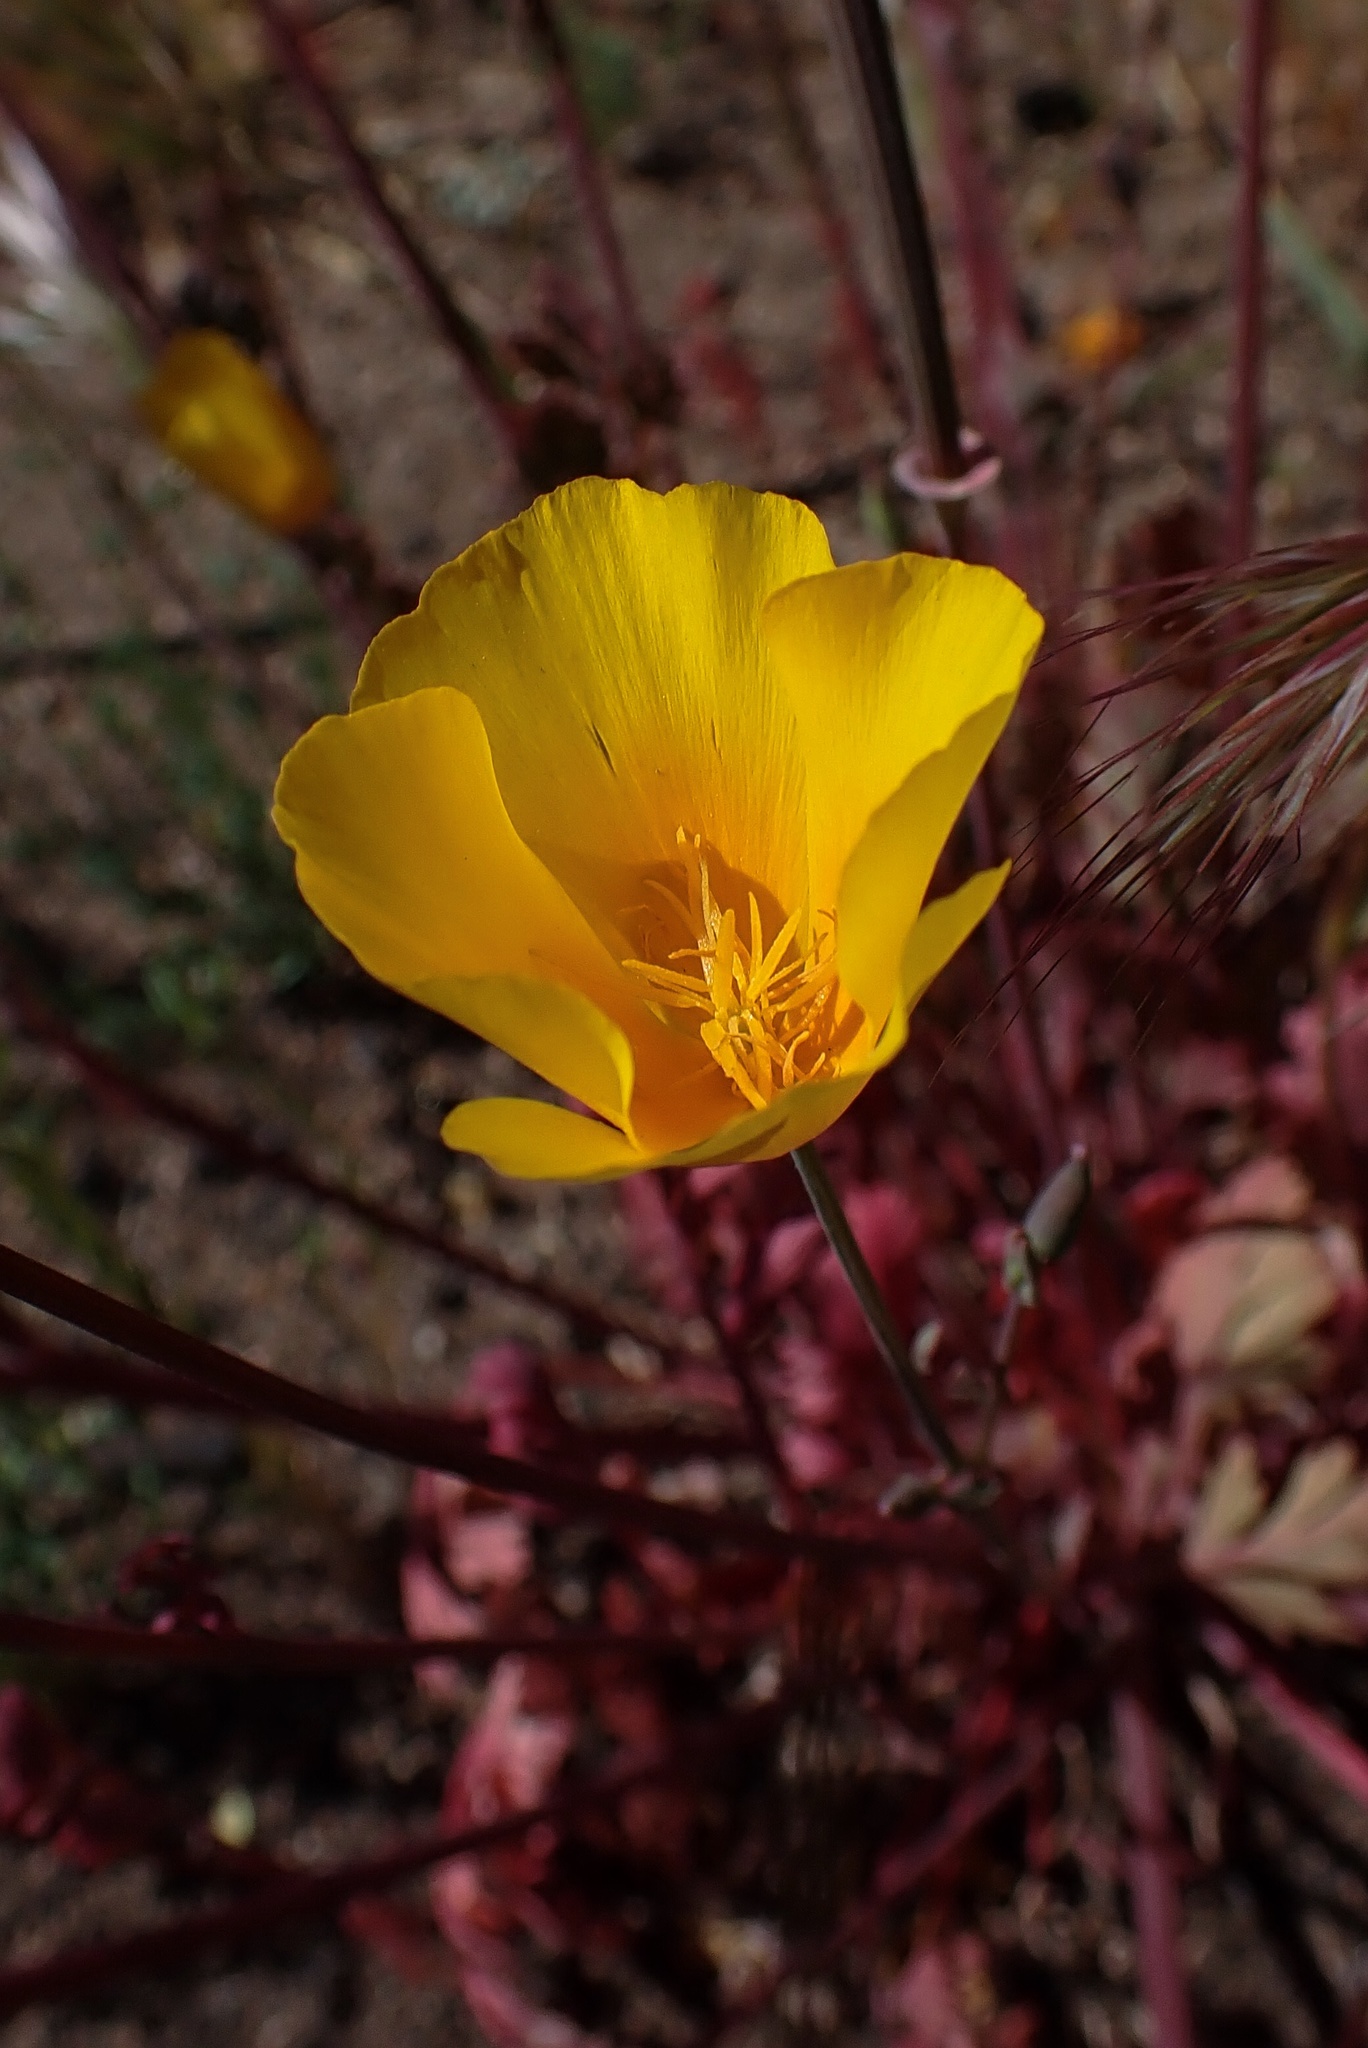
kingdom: Plantae
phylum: Tracheophyta
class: Magnoliopsida
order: Ranunculales
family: Papaveraceae
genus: Eschscholzia
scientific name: Eschscholzia californica
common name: California poppy
